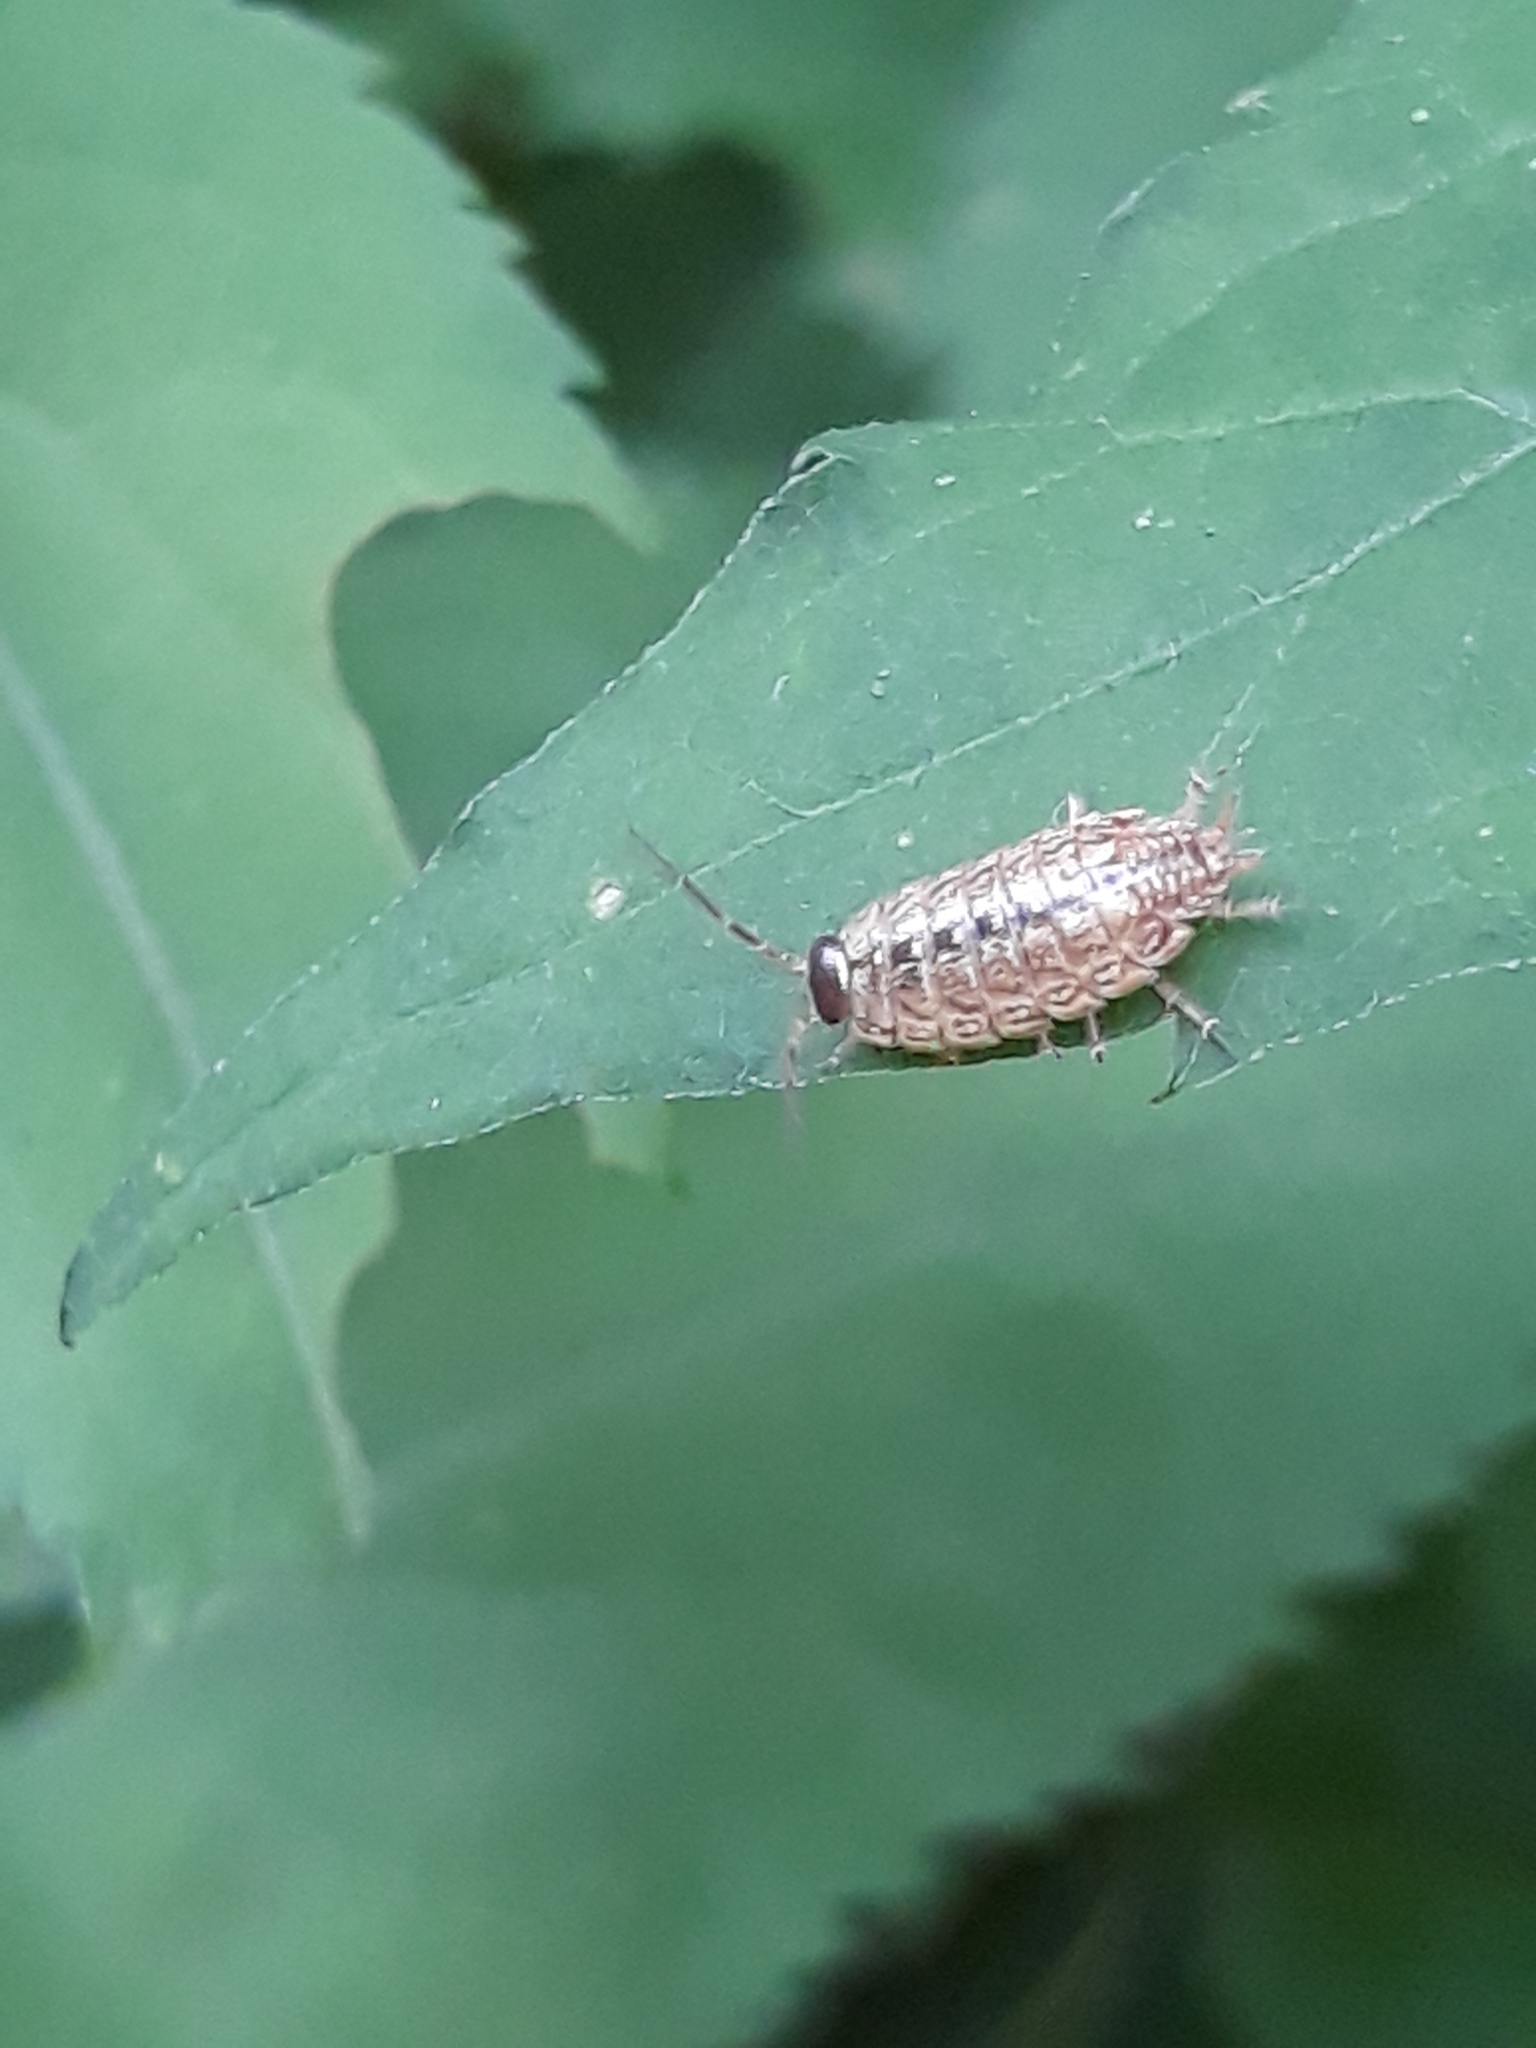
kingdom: Animalia
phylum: Arthropoda
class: Malacostraca
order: Isopoda
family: Philosciidae
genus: Philoscia
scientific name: Philoscia muscorum
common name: Common striped woodlouse
